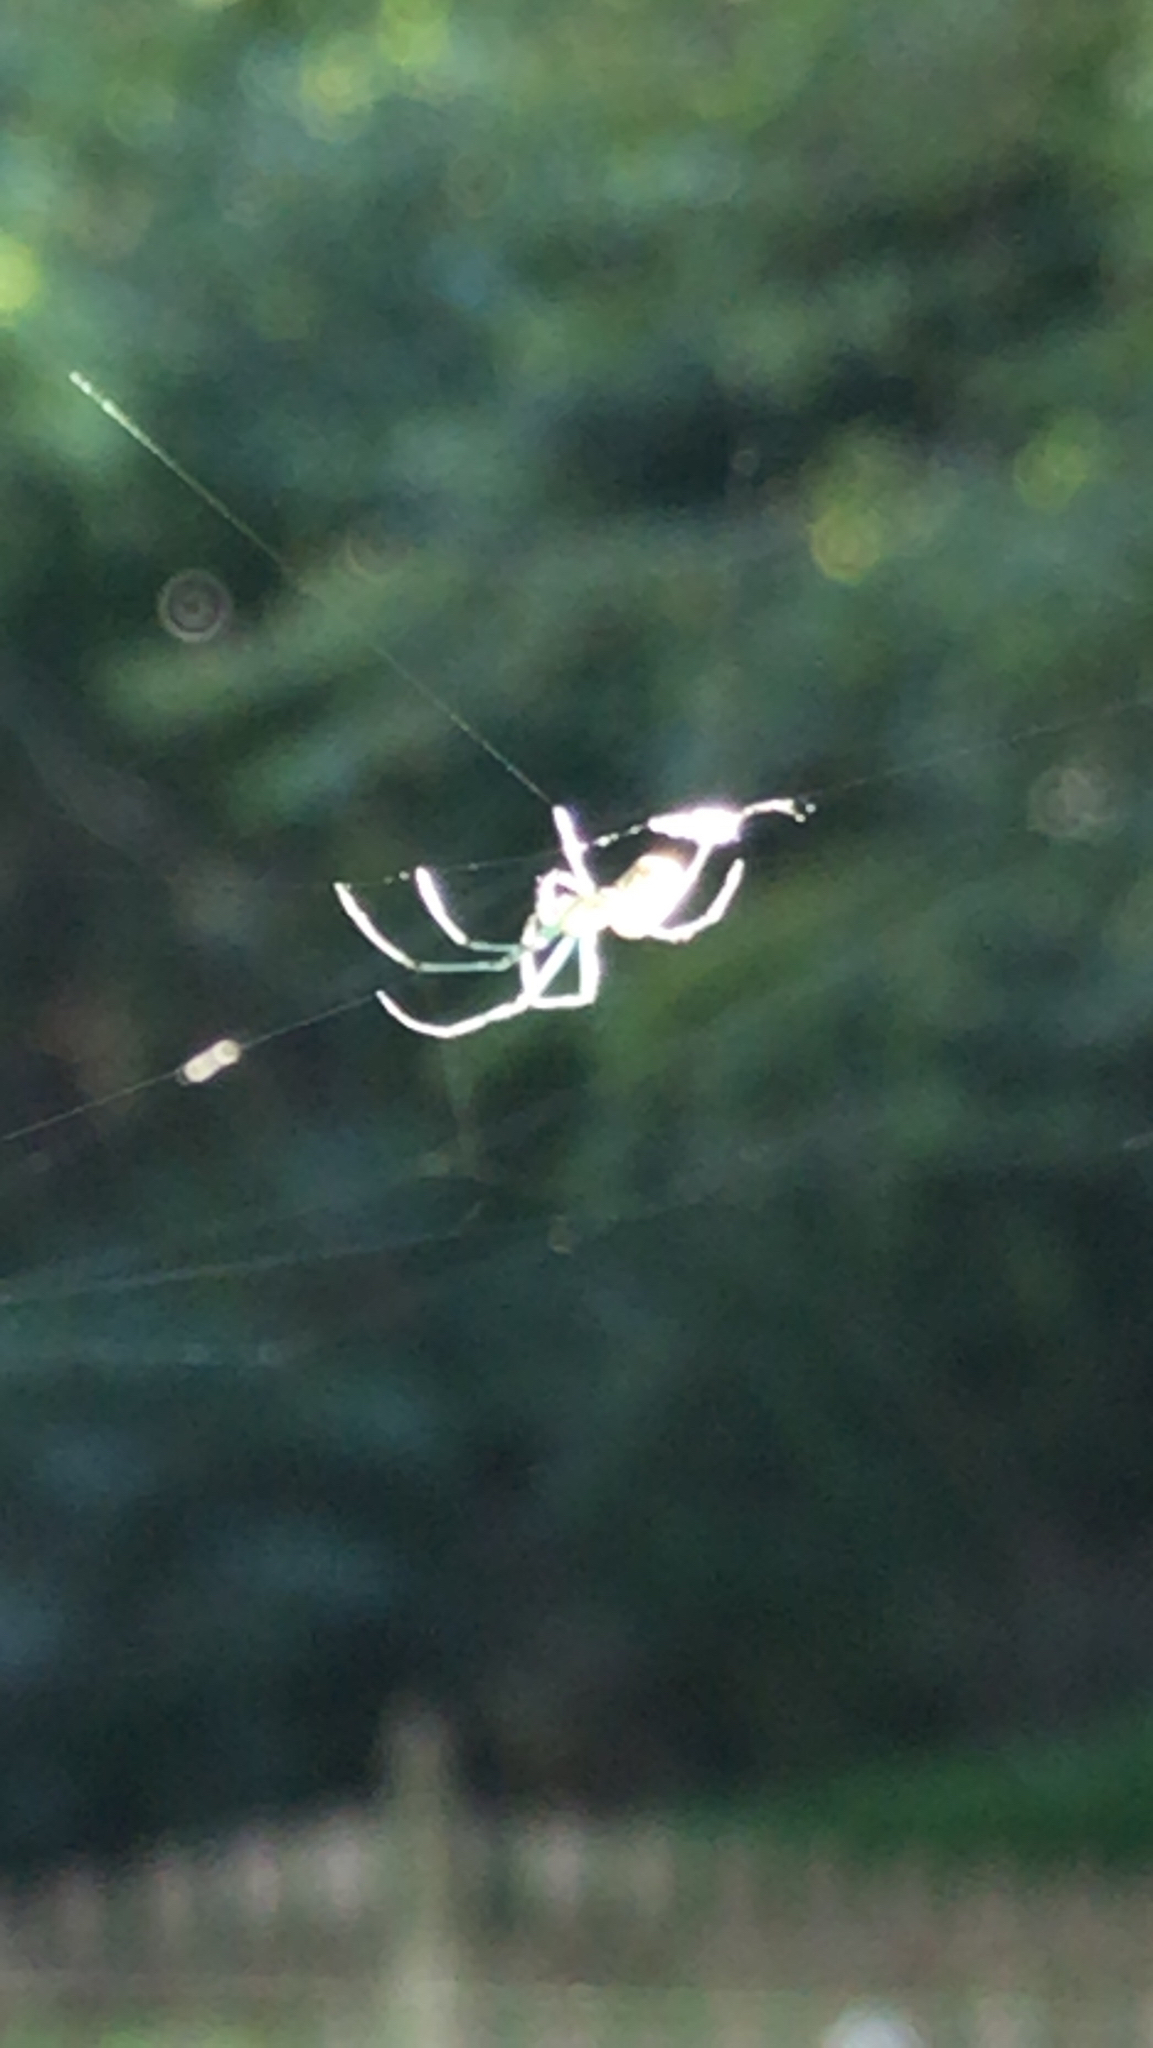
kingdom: Animalia
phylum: Arthropoda
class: Arachnida
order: Araneae
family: Tetragnathidae
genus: Leucauge
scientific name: Leucauge venusta
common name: Longjawed orb weavers
